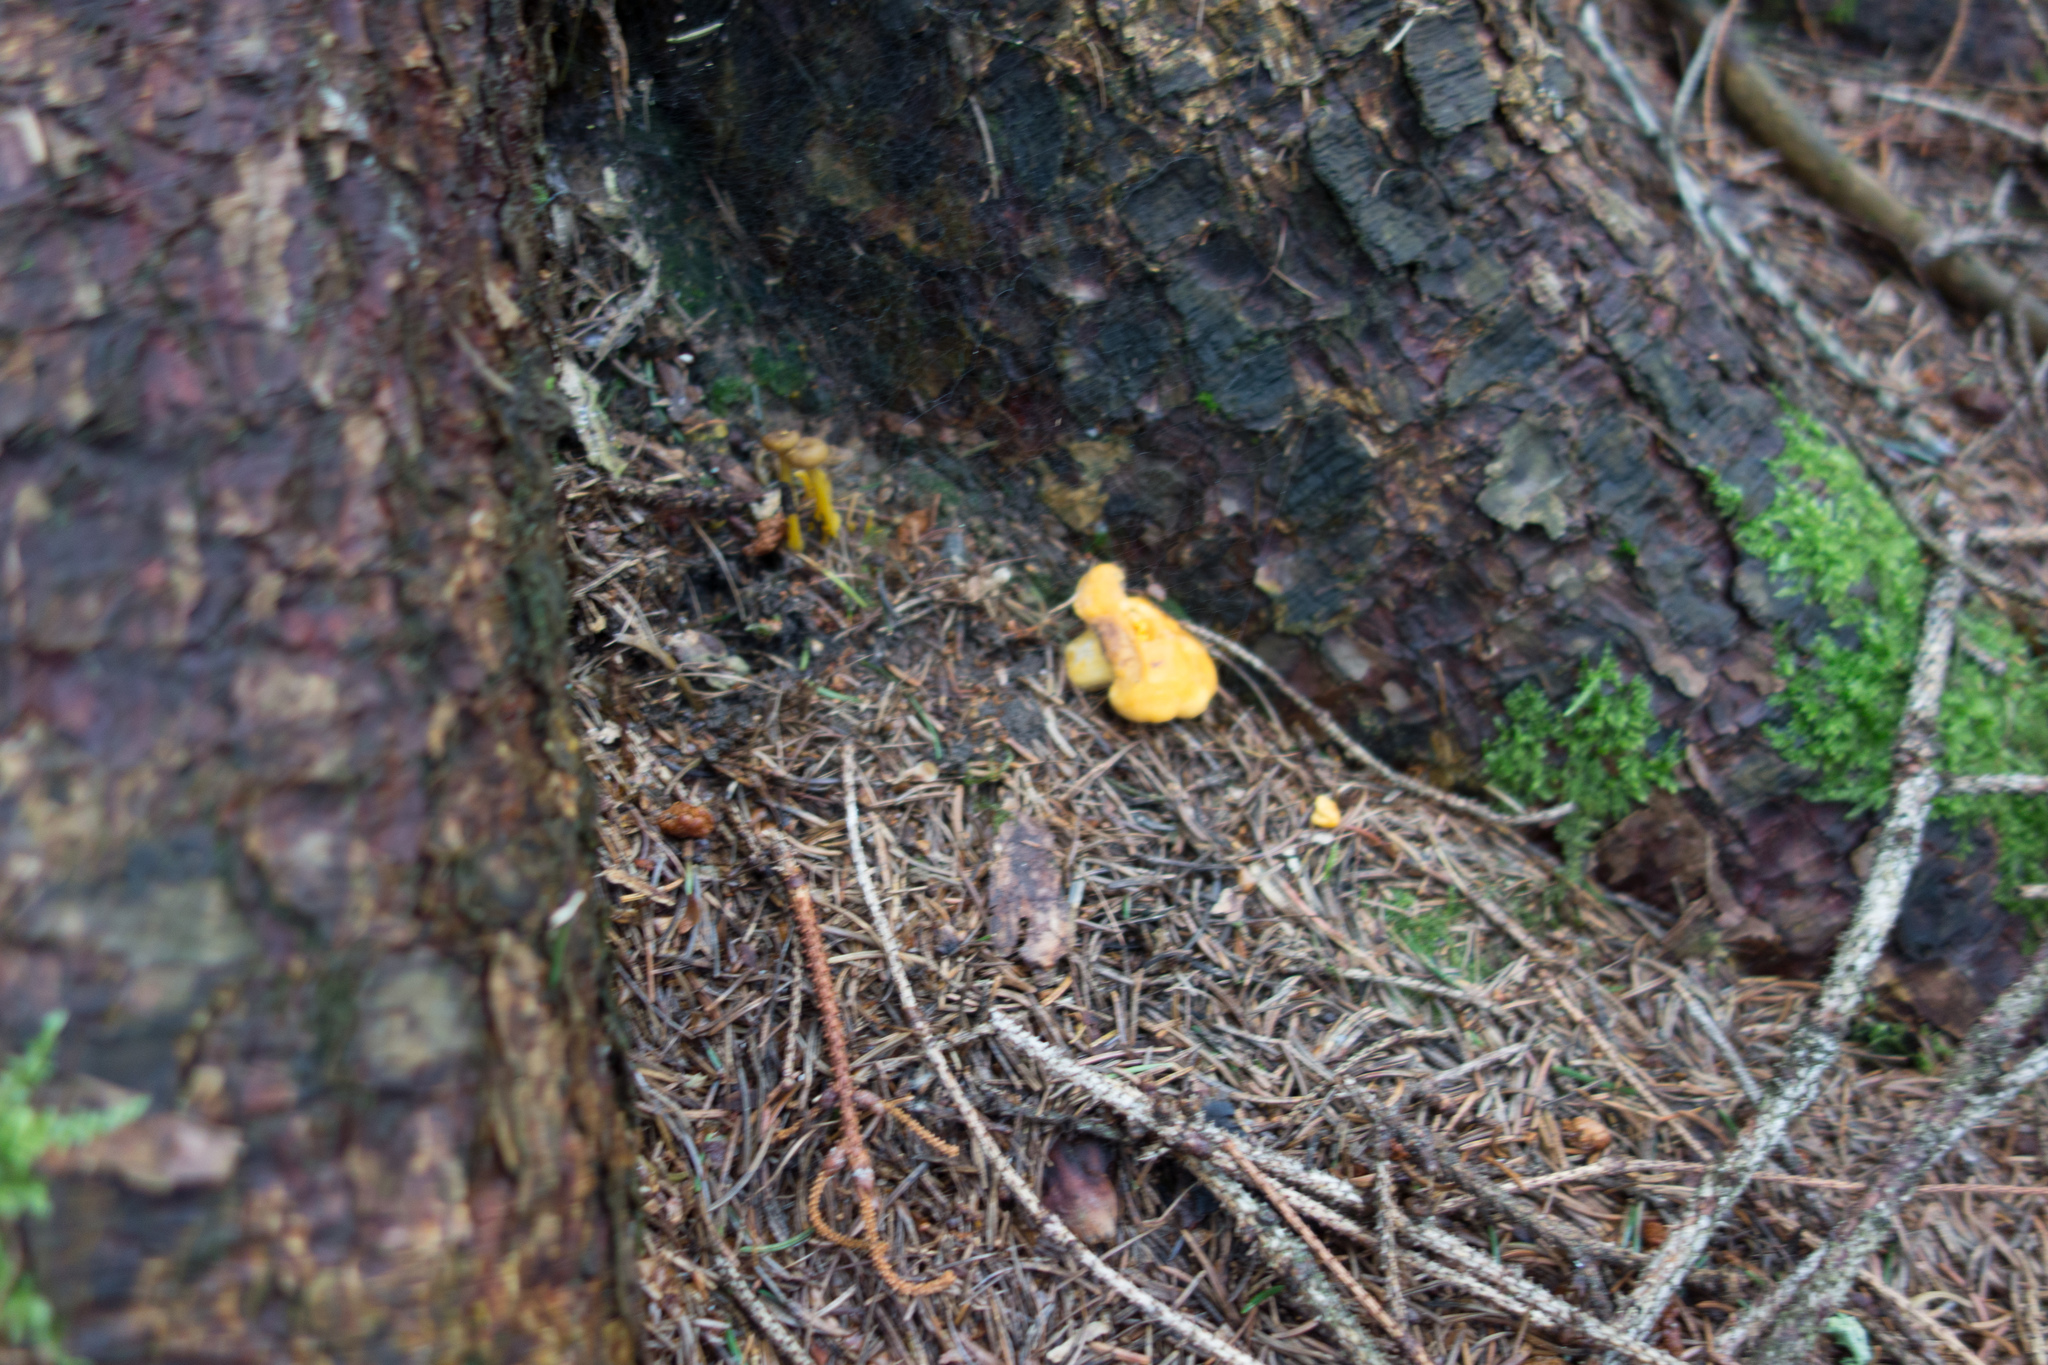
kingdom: Fungi
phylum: Basidiomycota
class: Agaricomycetes
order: Cantharellales
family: Hydnaceae
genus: Cantharellus
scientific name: Cantharellus cibarius
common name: Chanterelle
